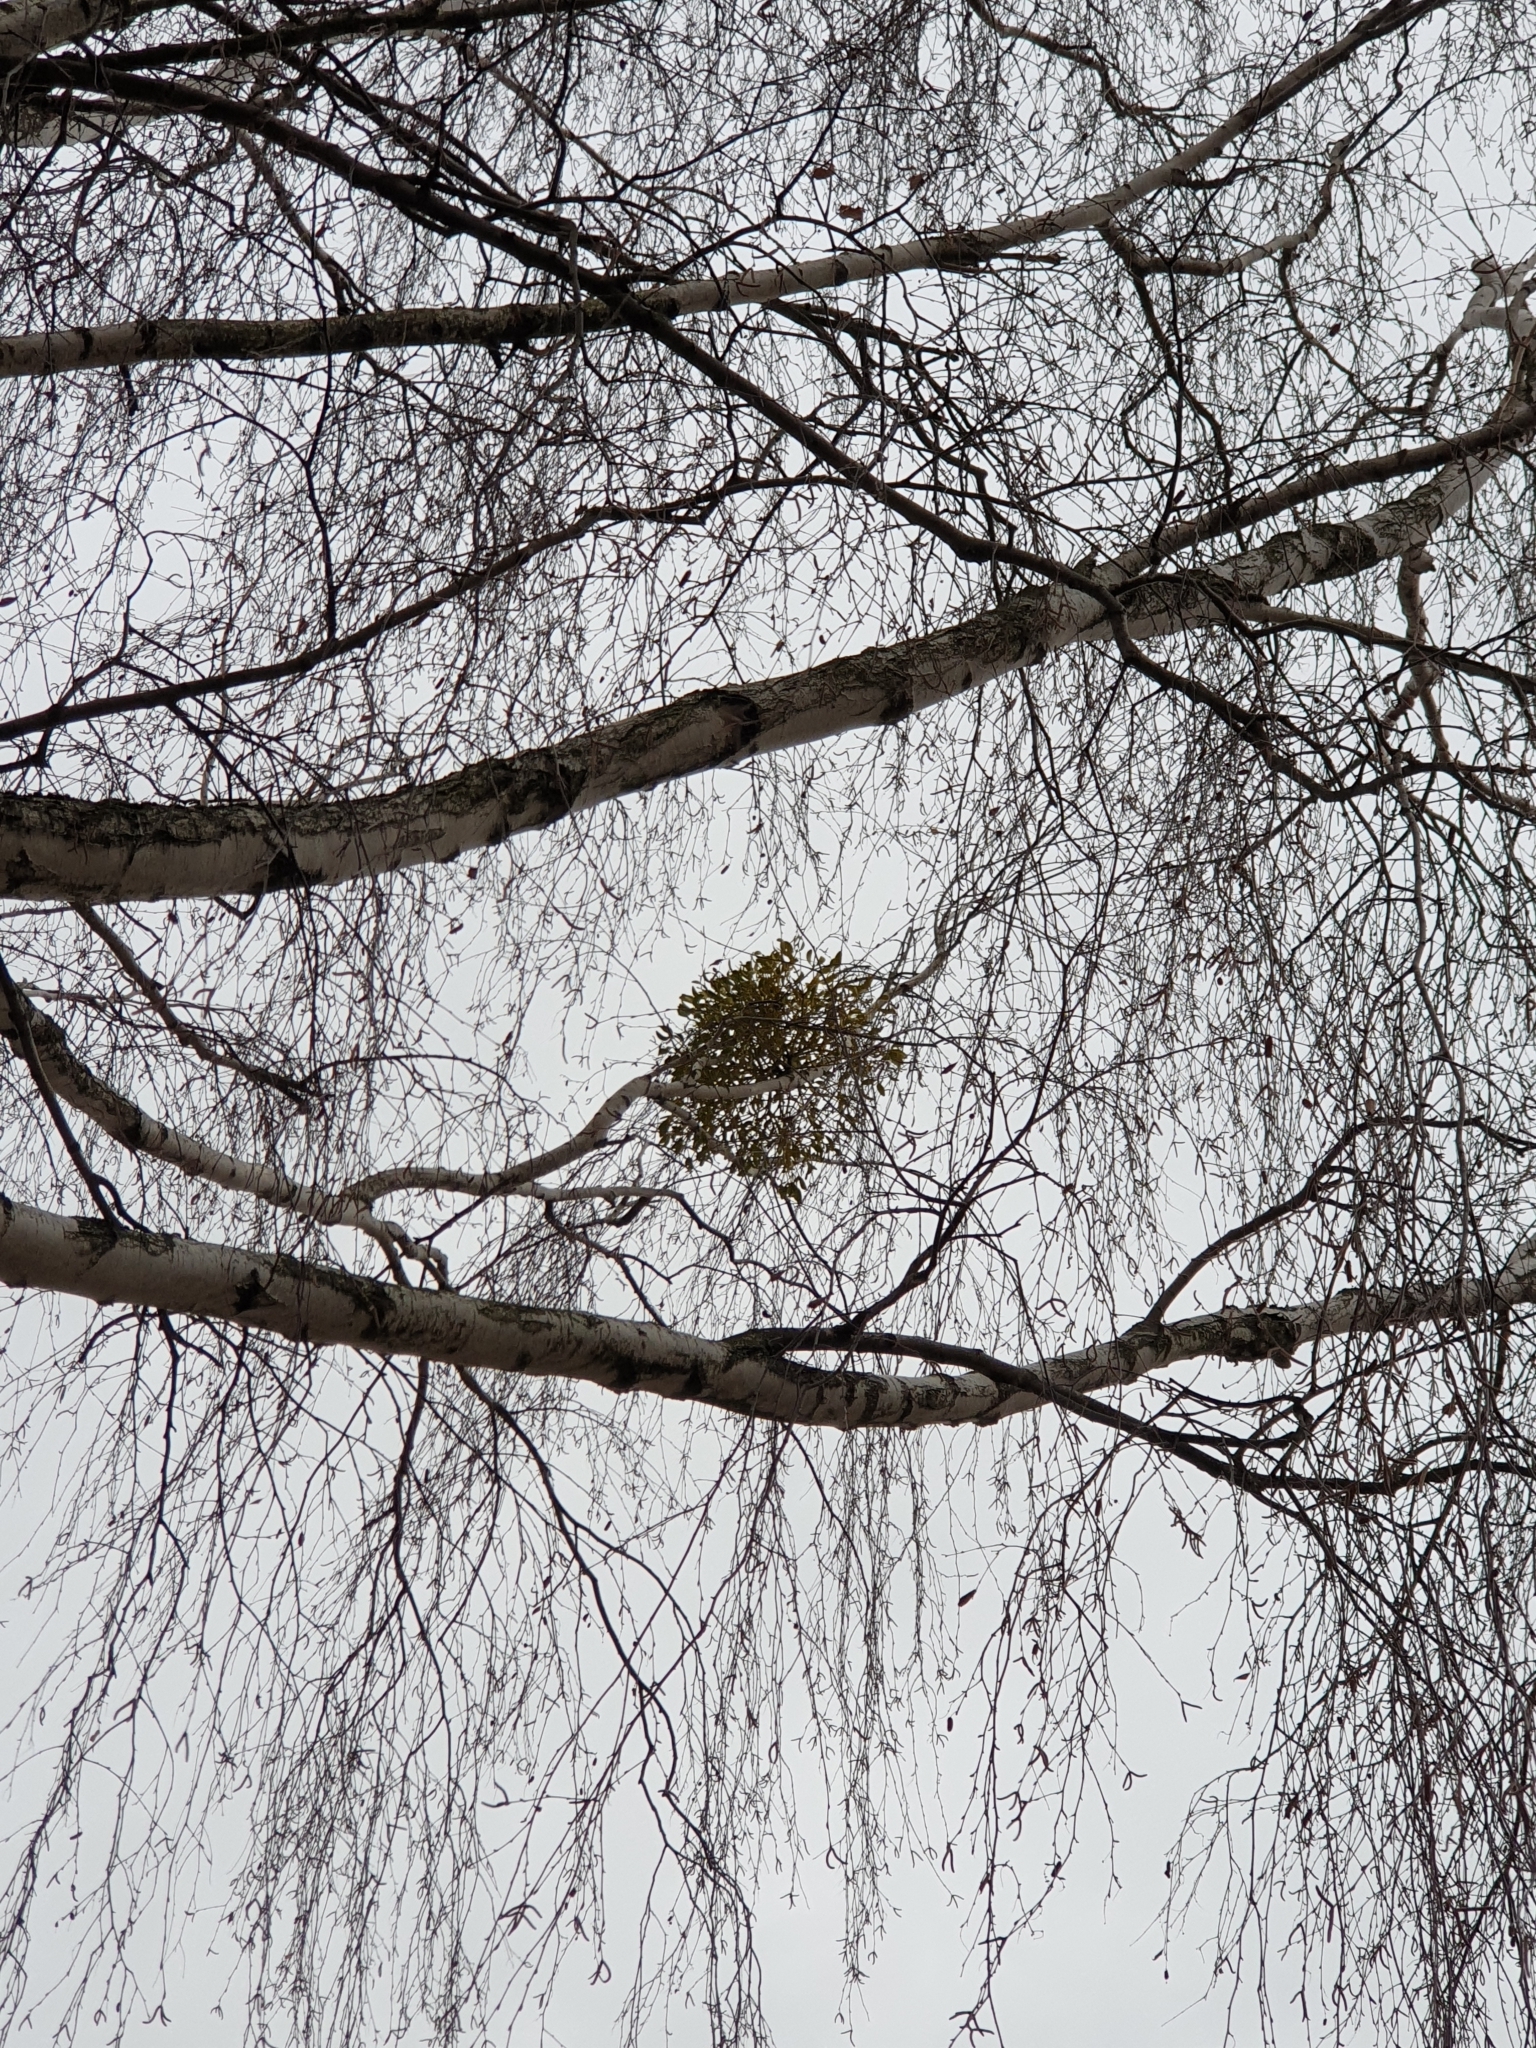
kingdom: Plantae
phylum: Tracheophyta
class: Magnoliopsida
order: Santalales
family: Viscaceae
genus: Viscum
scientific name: Viscum album
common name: Mistletoe
